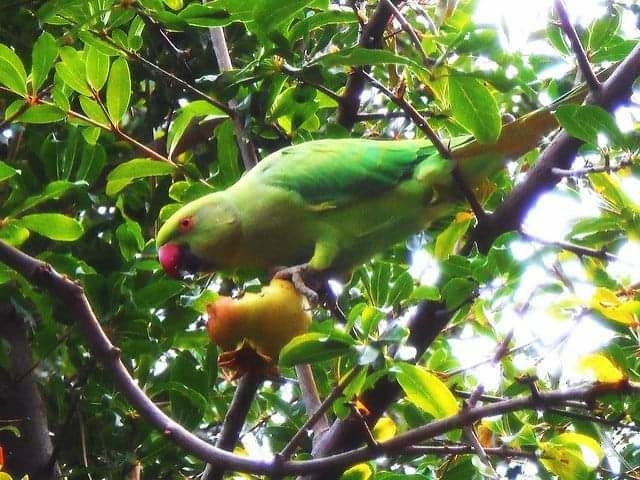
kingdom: Animalia
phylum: Chordata
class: Aves
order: Psittaciformes
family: Psittacidae
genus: Psittacula
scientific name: Psittacula krameri
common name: Rose-ringed parakeet
